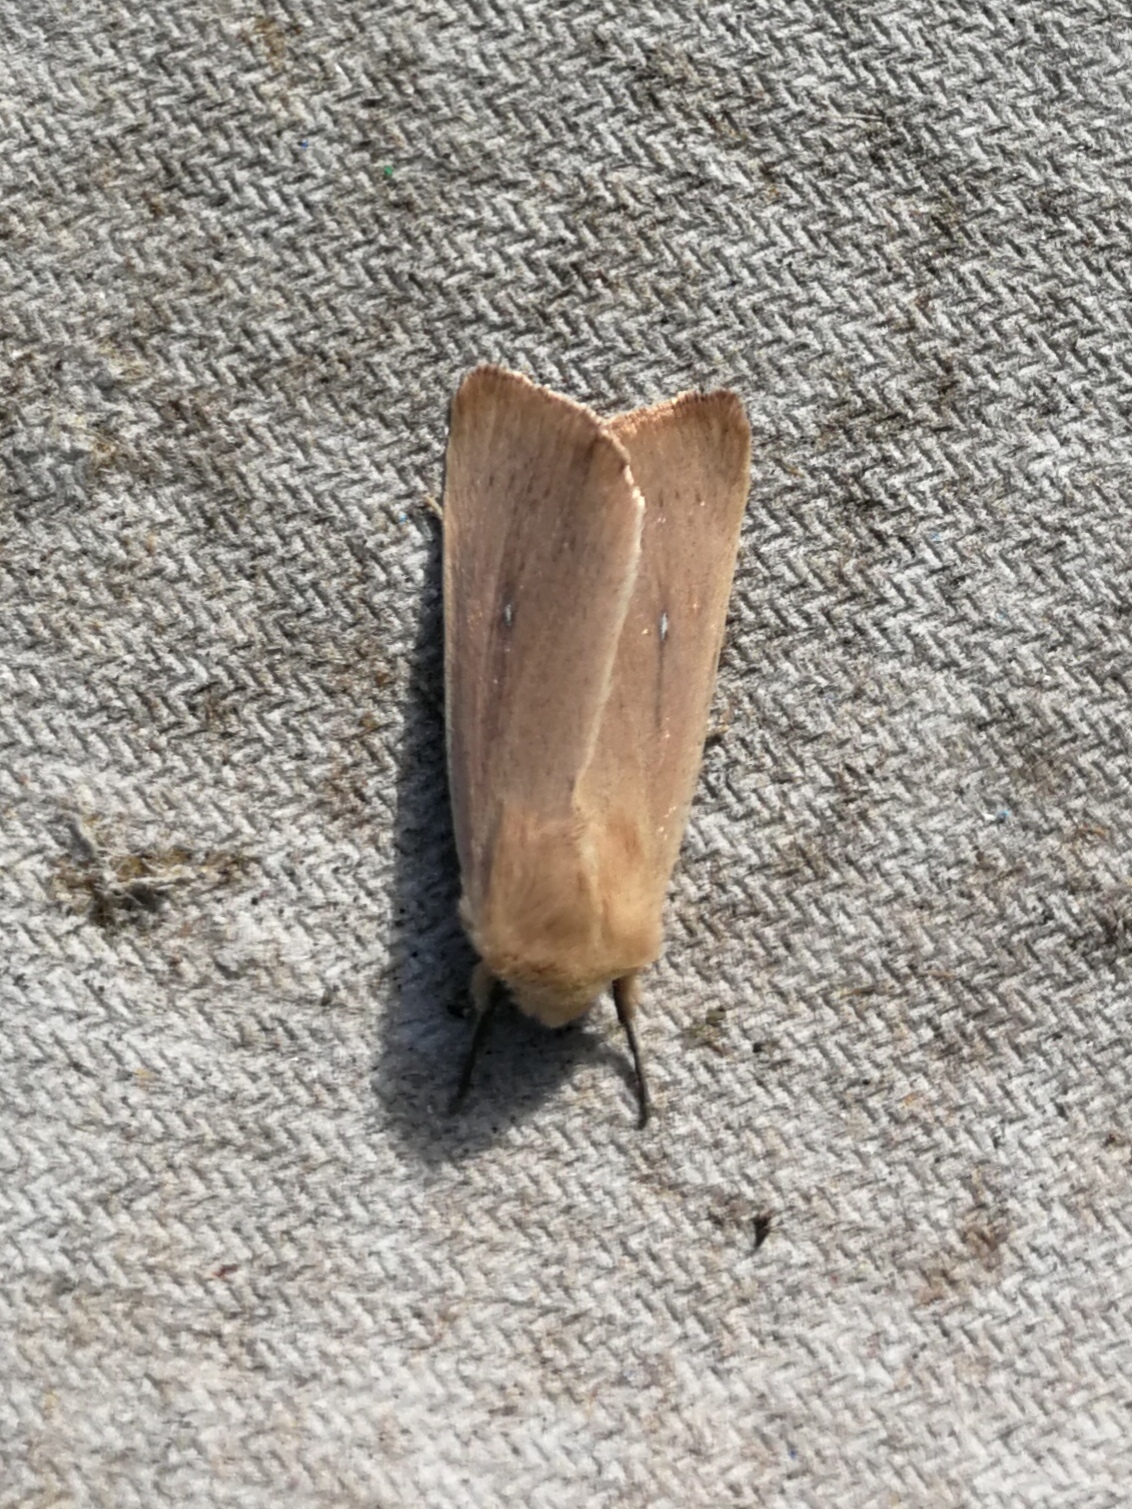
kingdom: Animalia
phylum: Arthropoda
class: Insecta
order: Lepidoptera
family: Noctuidae
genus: Mythimna
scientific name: Mythimna sicula
